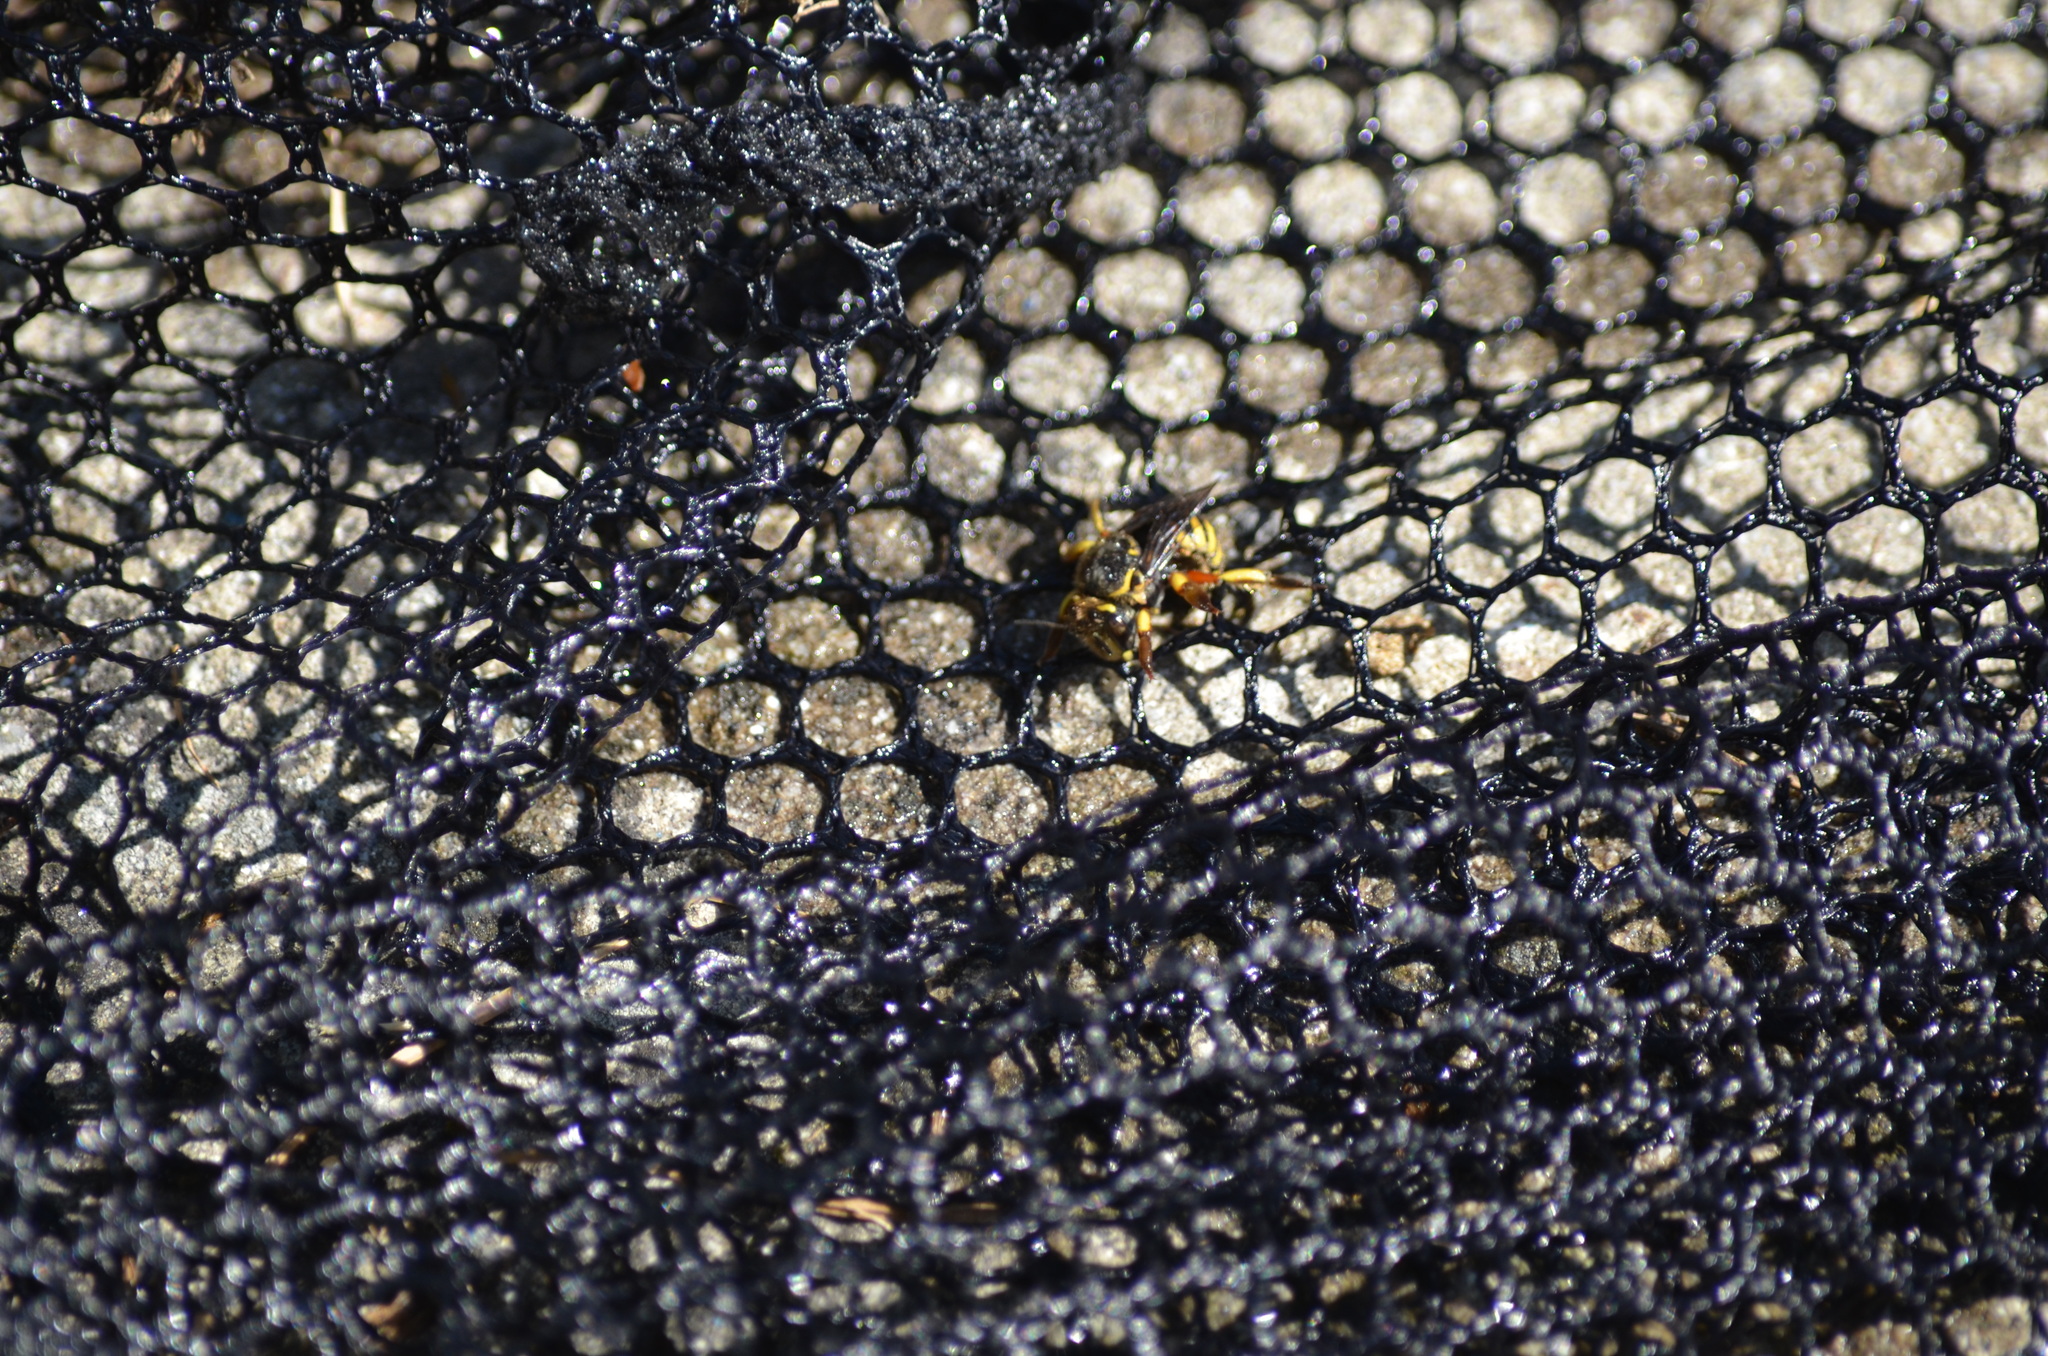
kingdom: Animalia
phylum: Arthropoda
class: Insecta
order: Hymenoptera
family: Megachilidae
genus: Anthidium
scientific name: Anthidium manicatum
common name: Wool carder bee
